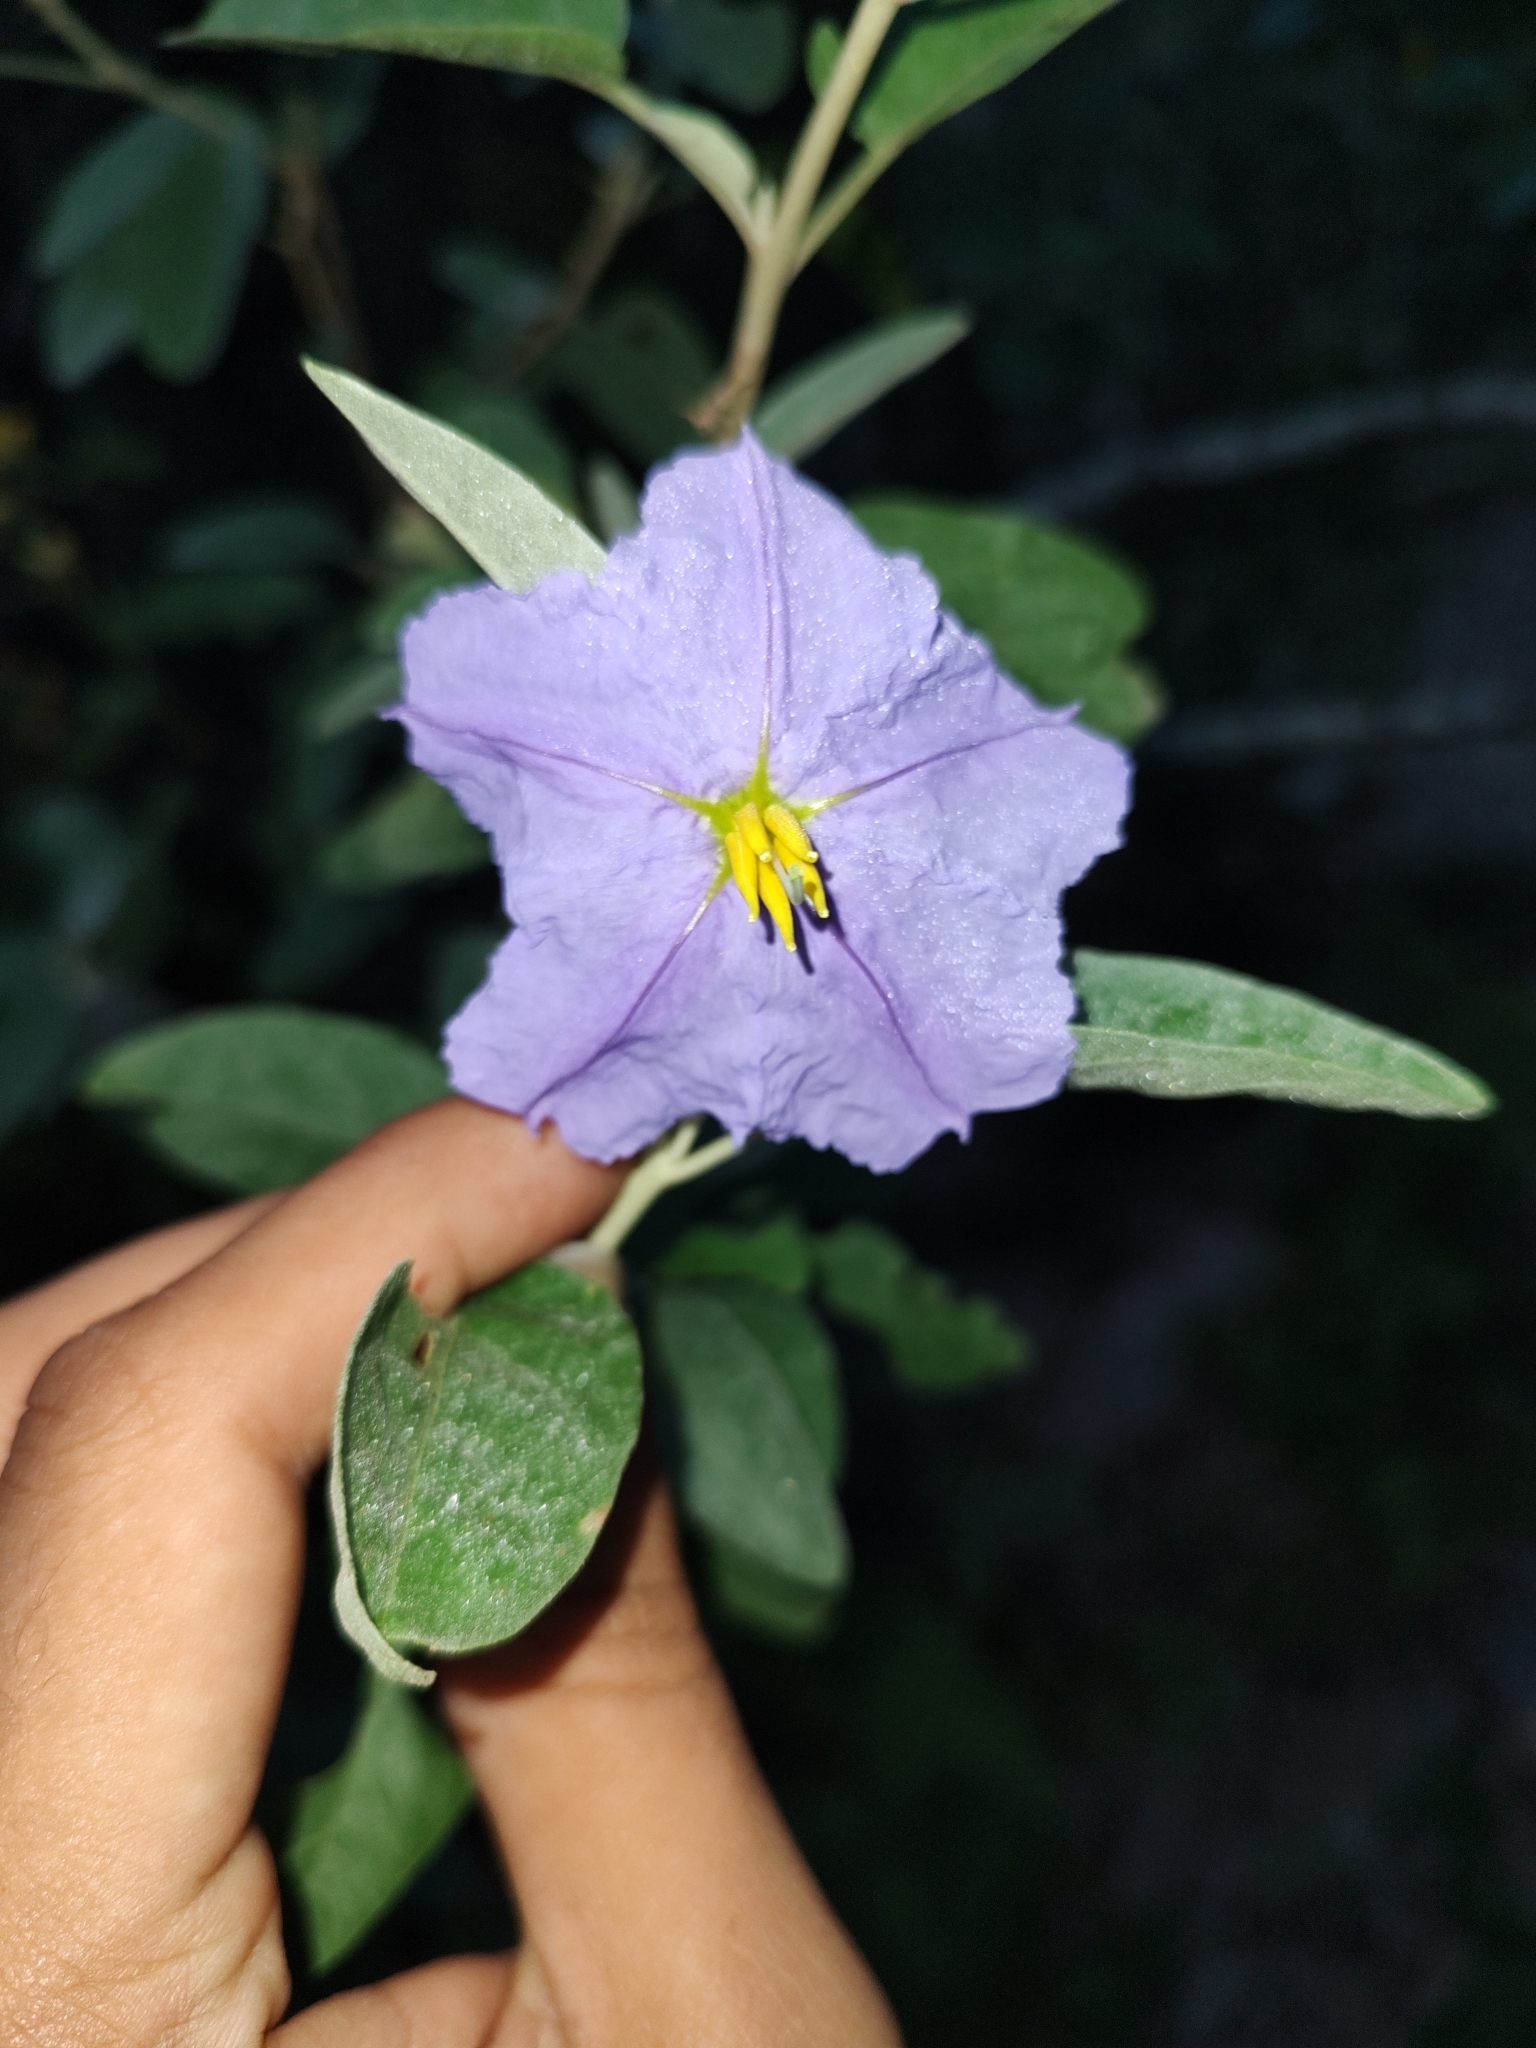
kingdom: Plantae
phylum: Tracheophyta
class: Magnoliopsida
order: Solanales
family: Solanaceae
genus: Solanum
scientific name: Solanum hindsianum
